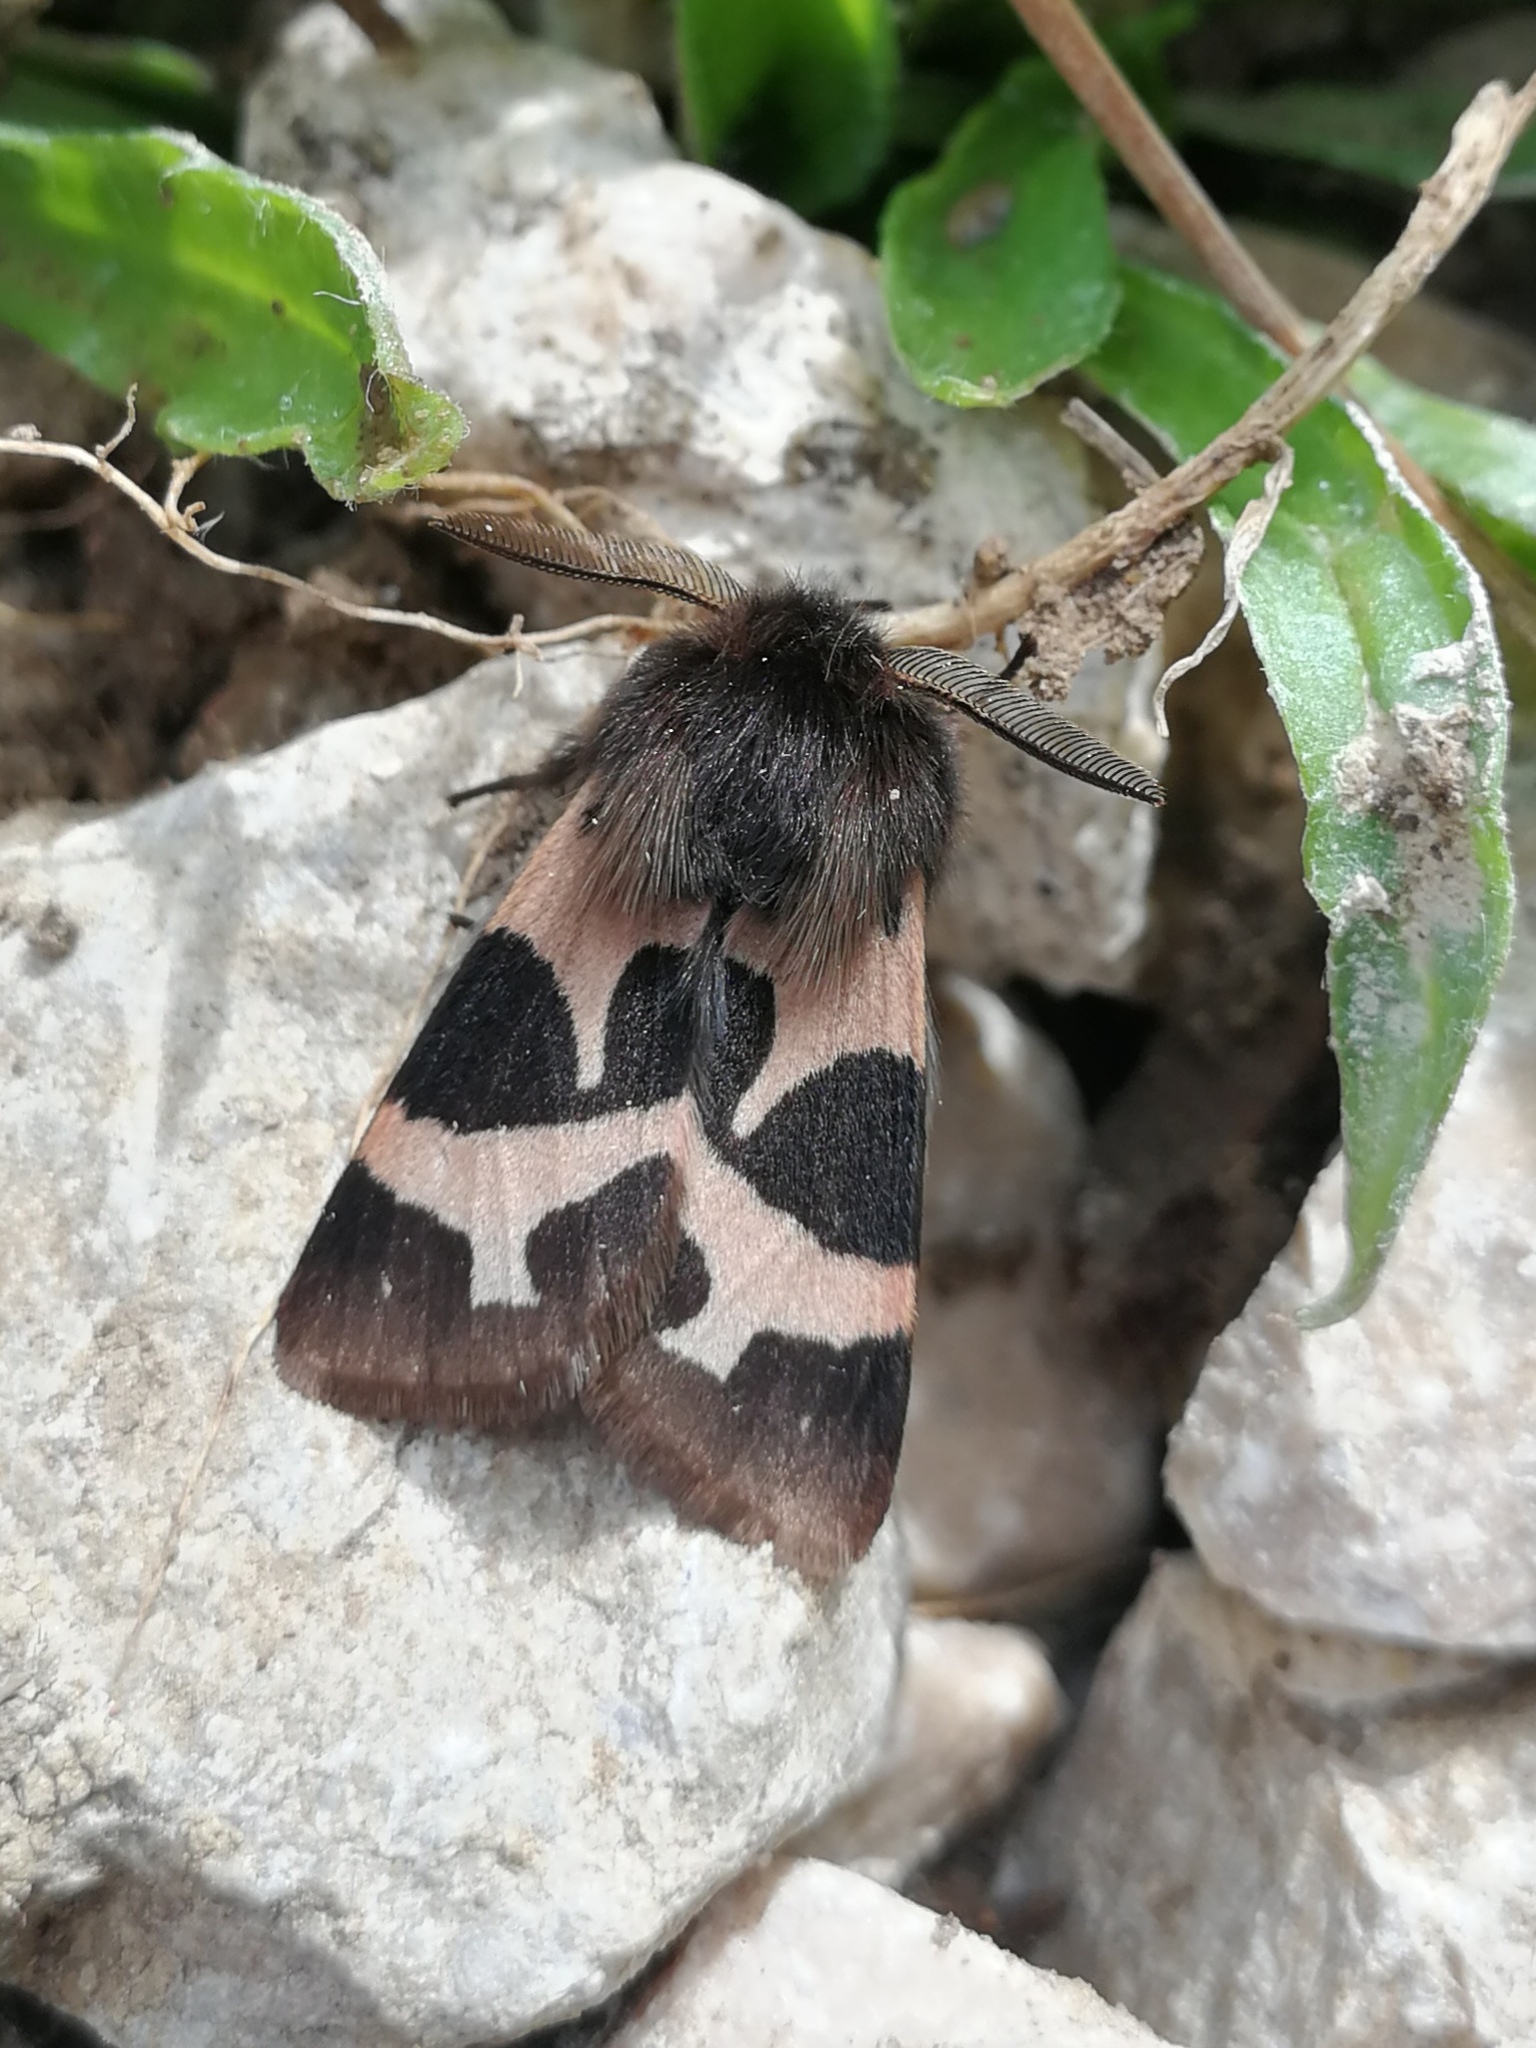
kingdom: Animalia
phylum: Arthropoda
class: Insecta
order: Lepidoptera
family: Erebidae
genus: Watsonarctia
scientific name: Watsonarctia deserta
